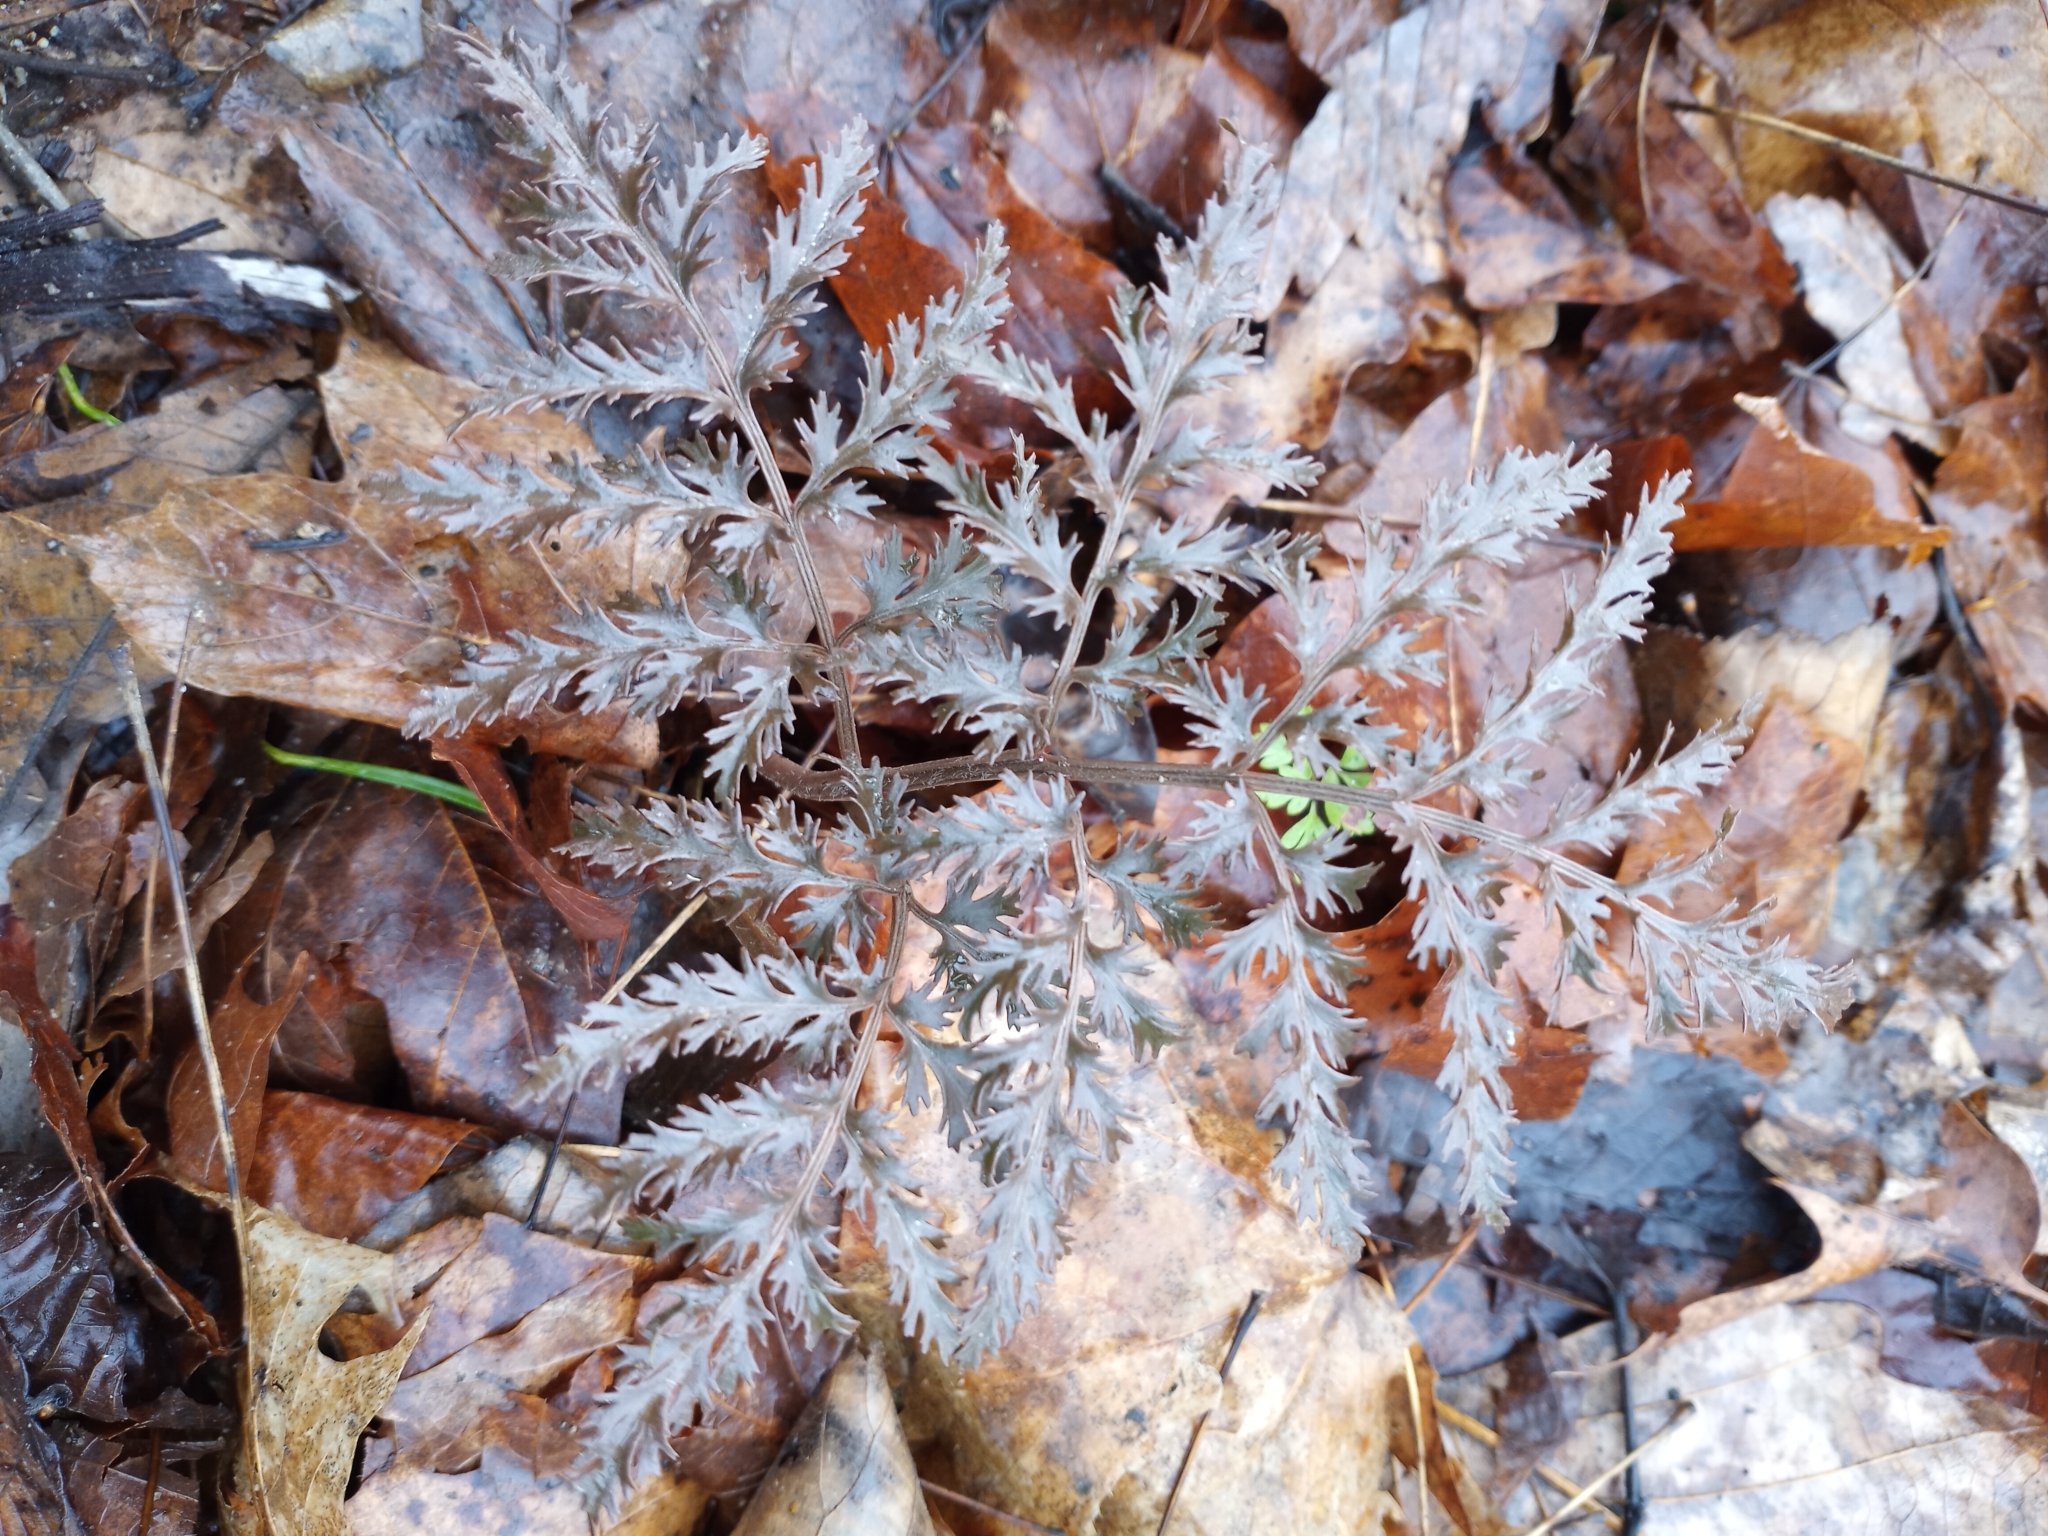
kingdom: Plantae
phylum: Tracheophyta
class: Polypodiopsida
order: Ophioglossales
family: Ophioglossaceae
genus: Sceptridium
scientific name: Sceptridium dissectum
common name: Cut-leaved grapefern
